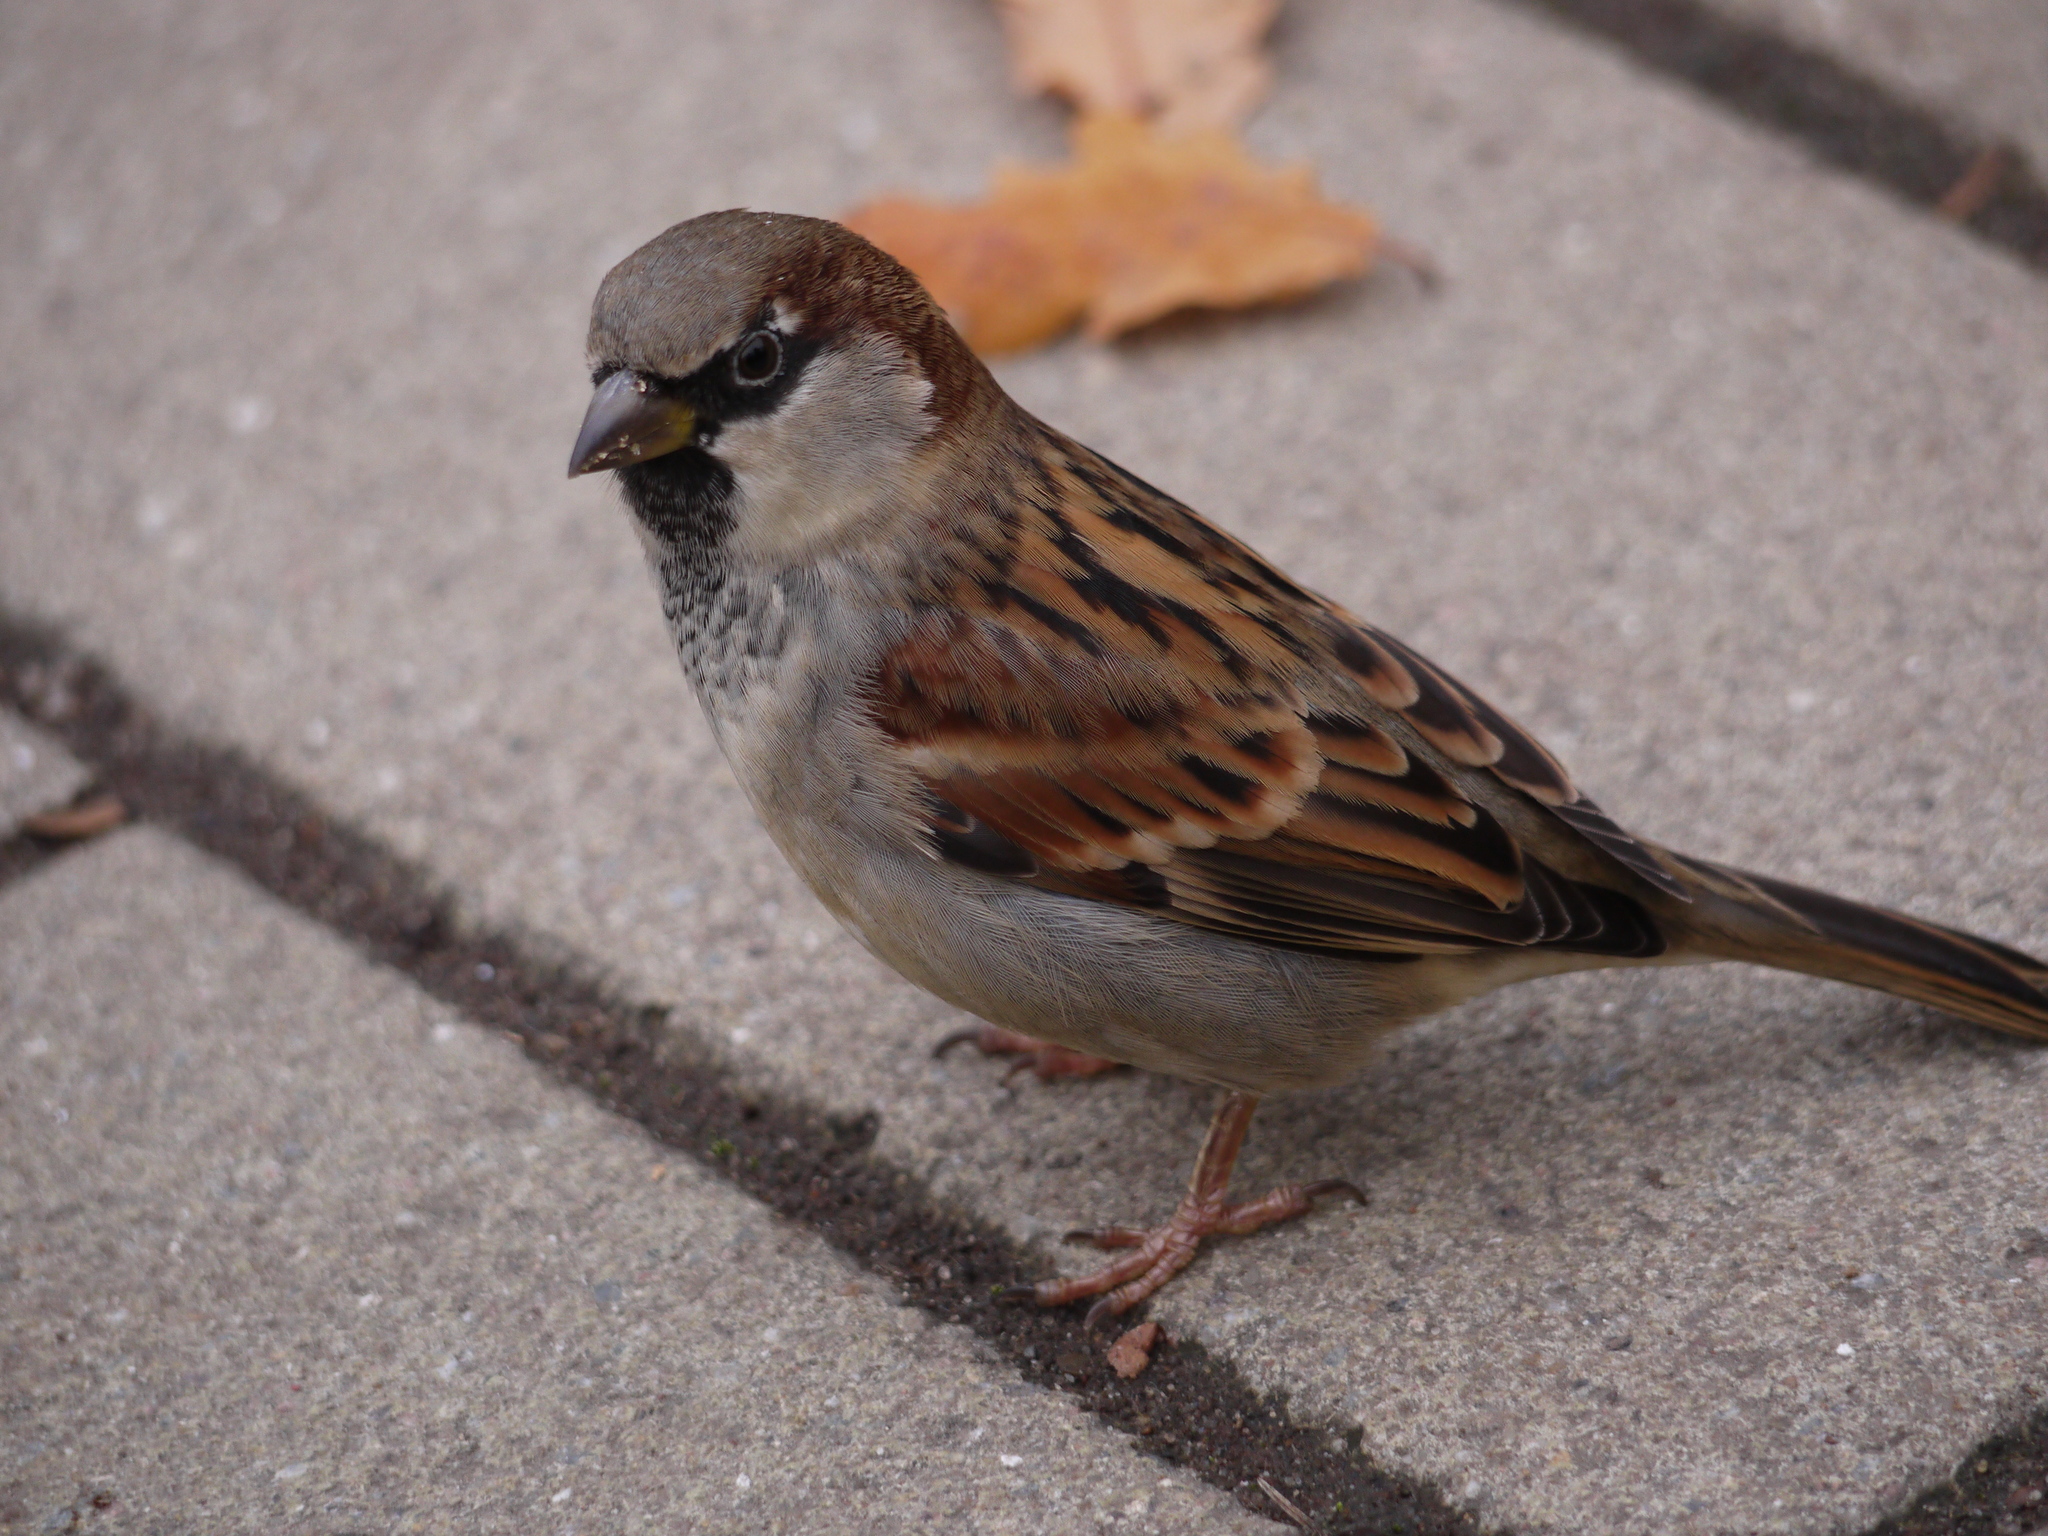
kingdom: Animalia
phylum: Chordata
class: Aves
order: Passeriformes
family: Passeridae
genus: Passer
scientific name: Passer domesticus
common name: House sparrow
